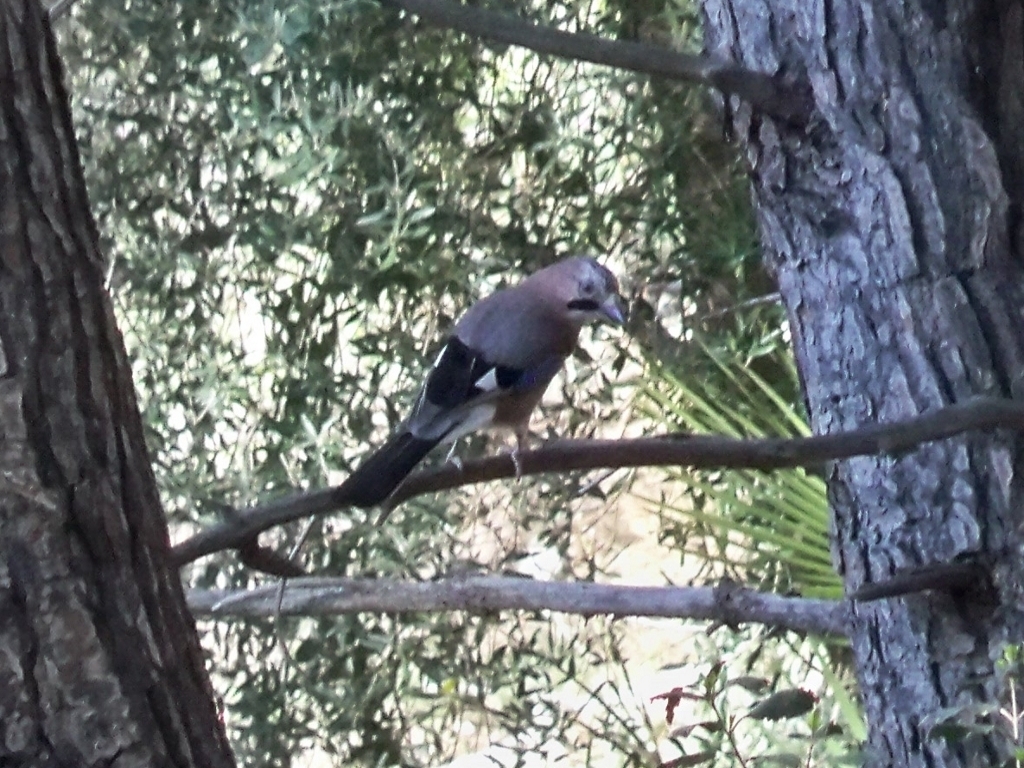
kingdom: Animalia
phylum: Chordata
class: Aves
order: Passeriformes
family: Corvidae
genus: Garrulus
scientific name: Garrulus glandarius
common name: Eurasian jay
